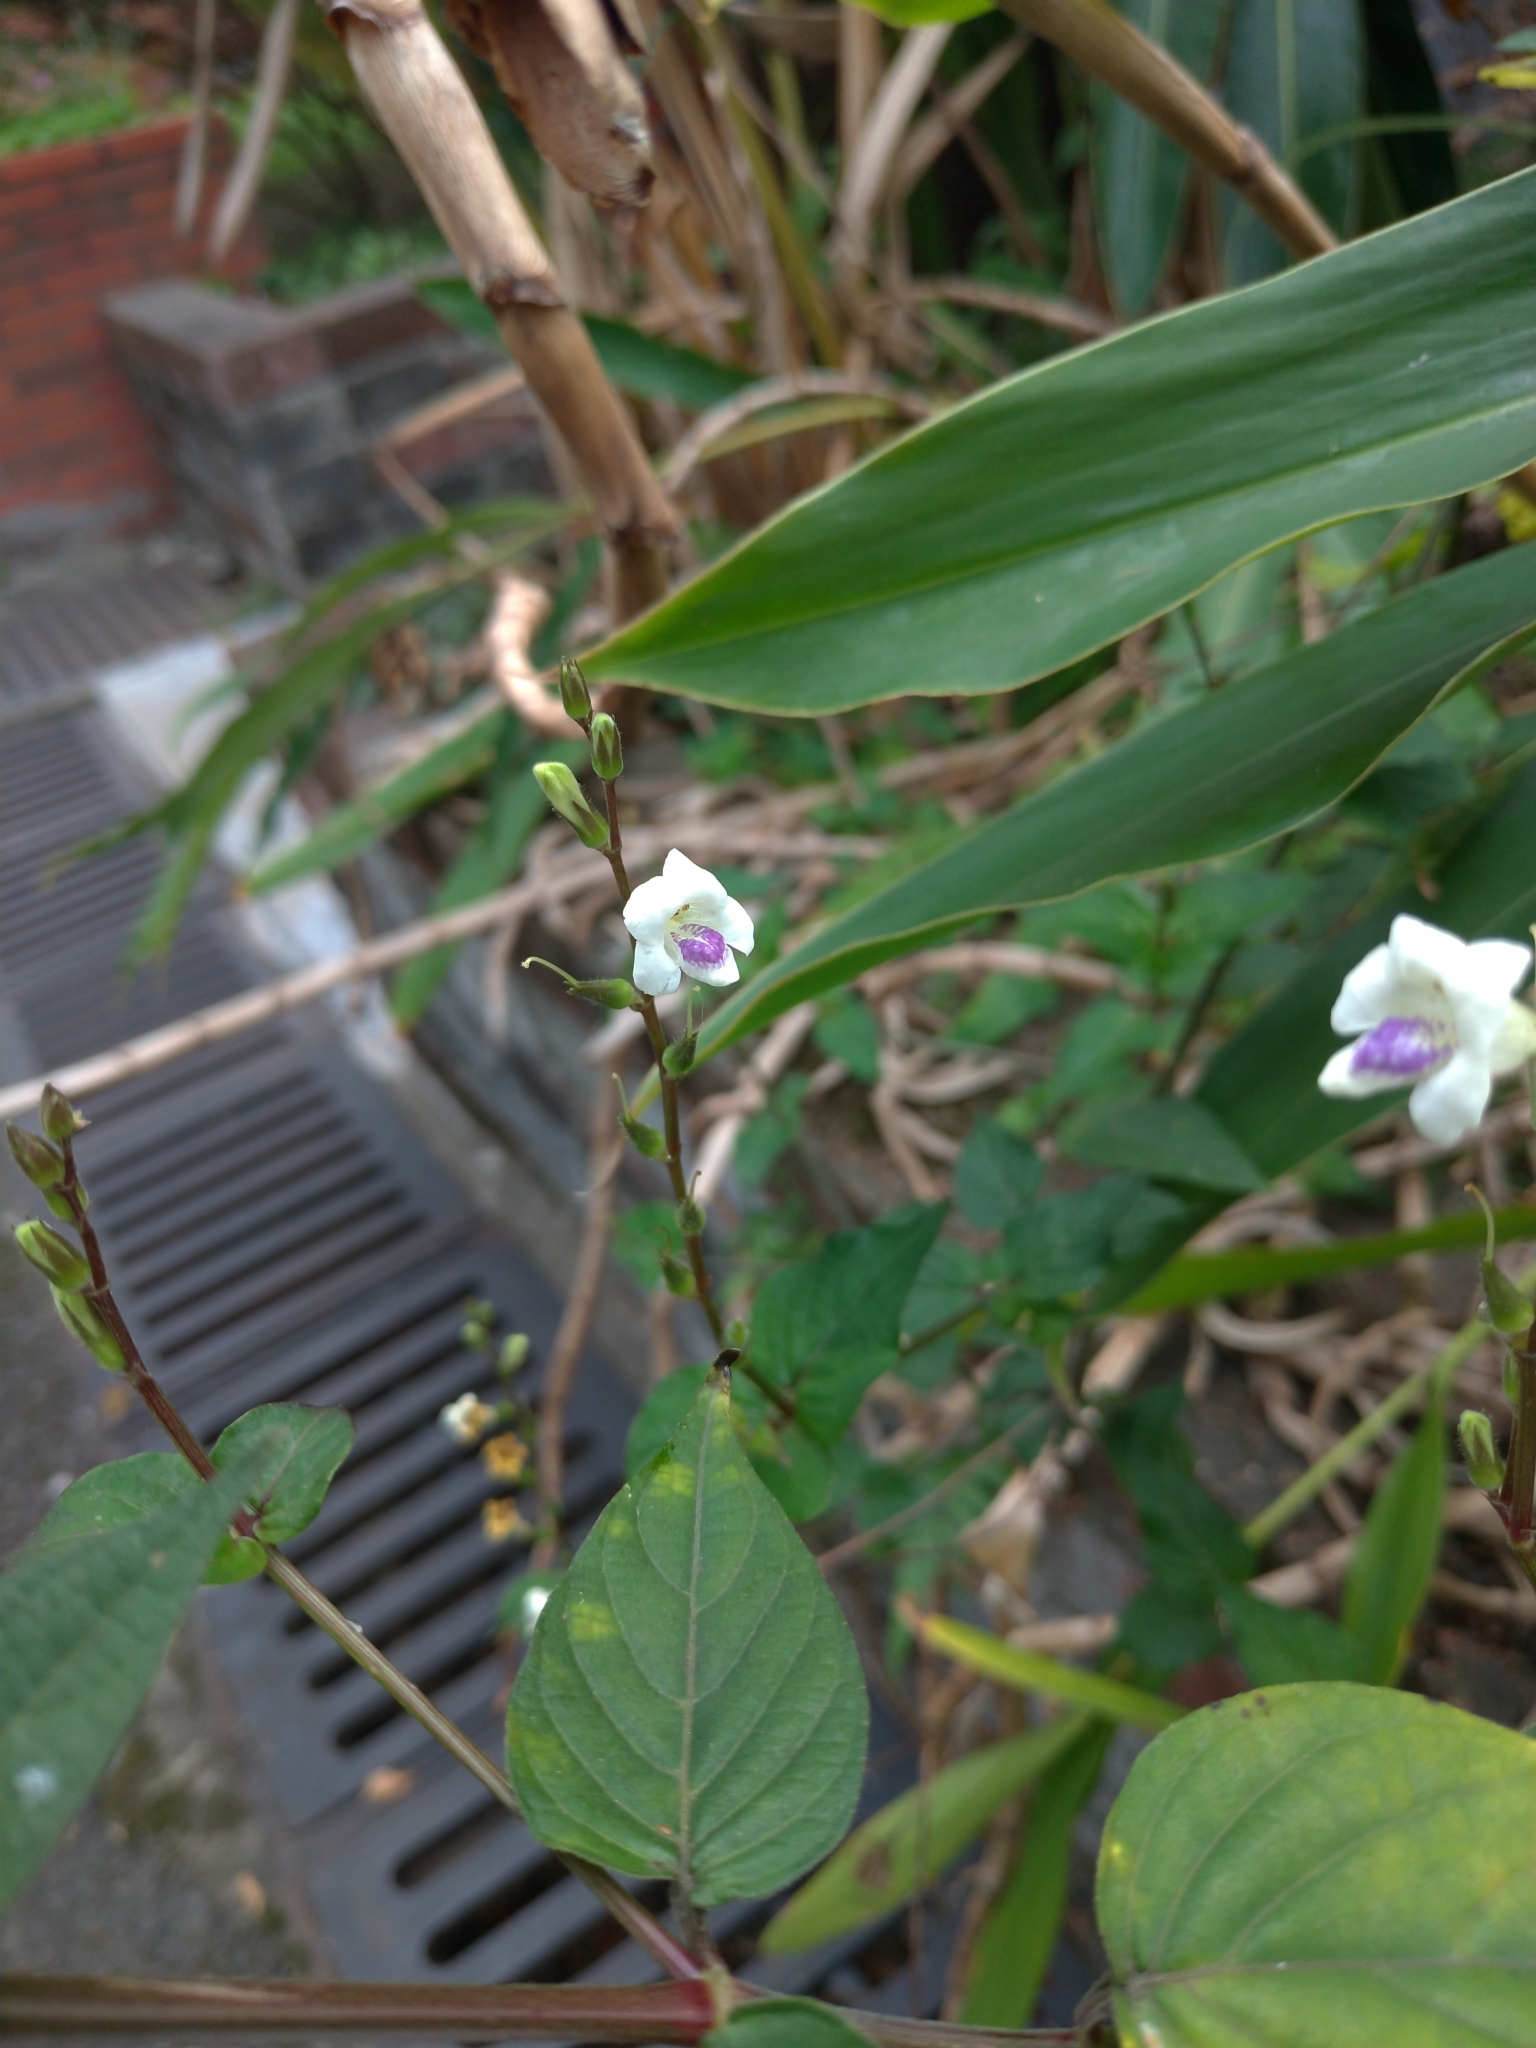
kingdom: Plantae
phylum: Tracheophyta
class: Magnoliopsida
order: Lamiales
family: Acanthaceae
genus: Asystasia
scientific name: Asystasia intrusa
